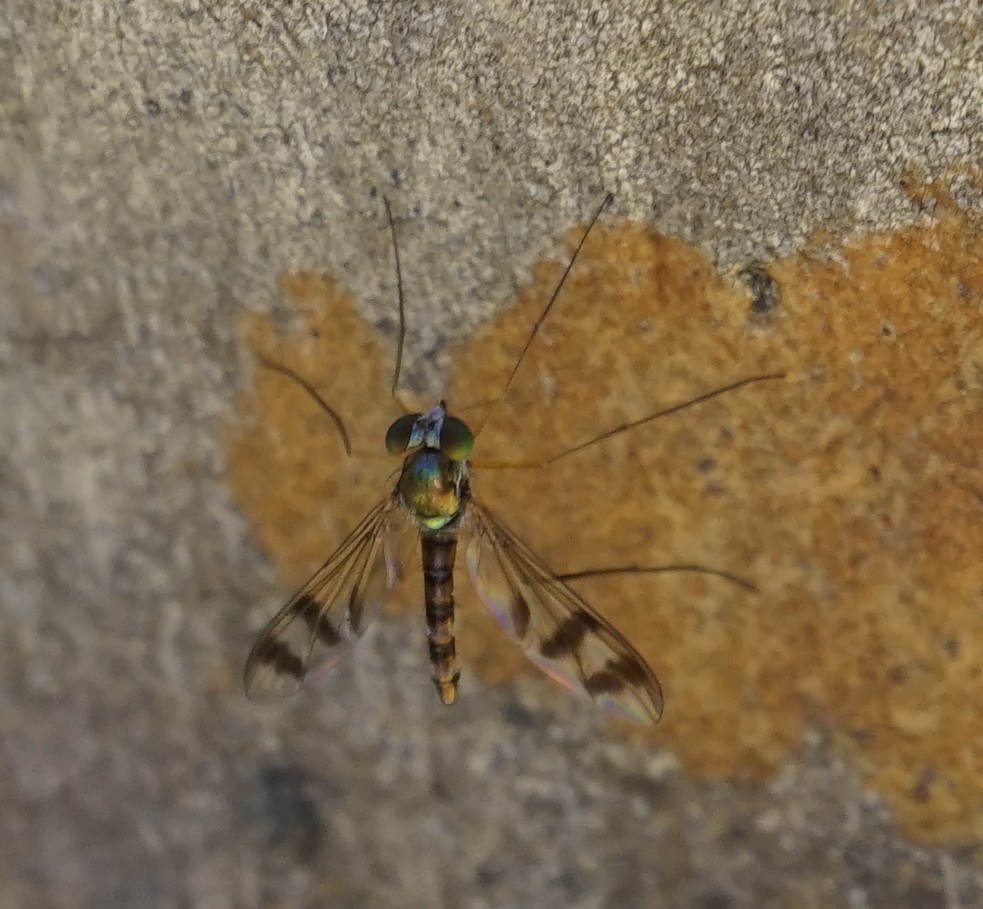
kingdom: Animalia
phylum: Arthropoda
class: Insecta
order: Diptera
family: Dolichopodidae
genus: Heteropsilopus
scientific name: Heteropsilopus squamifer
